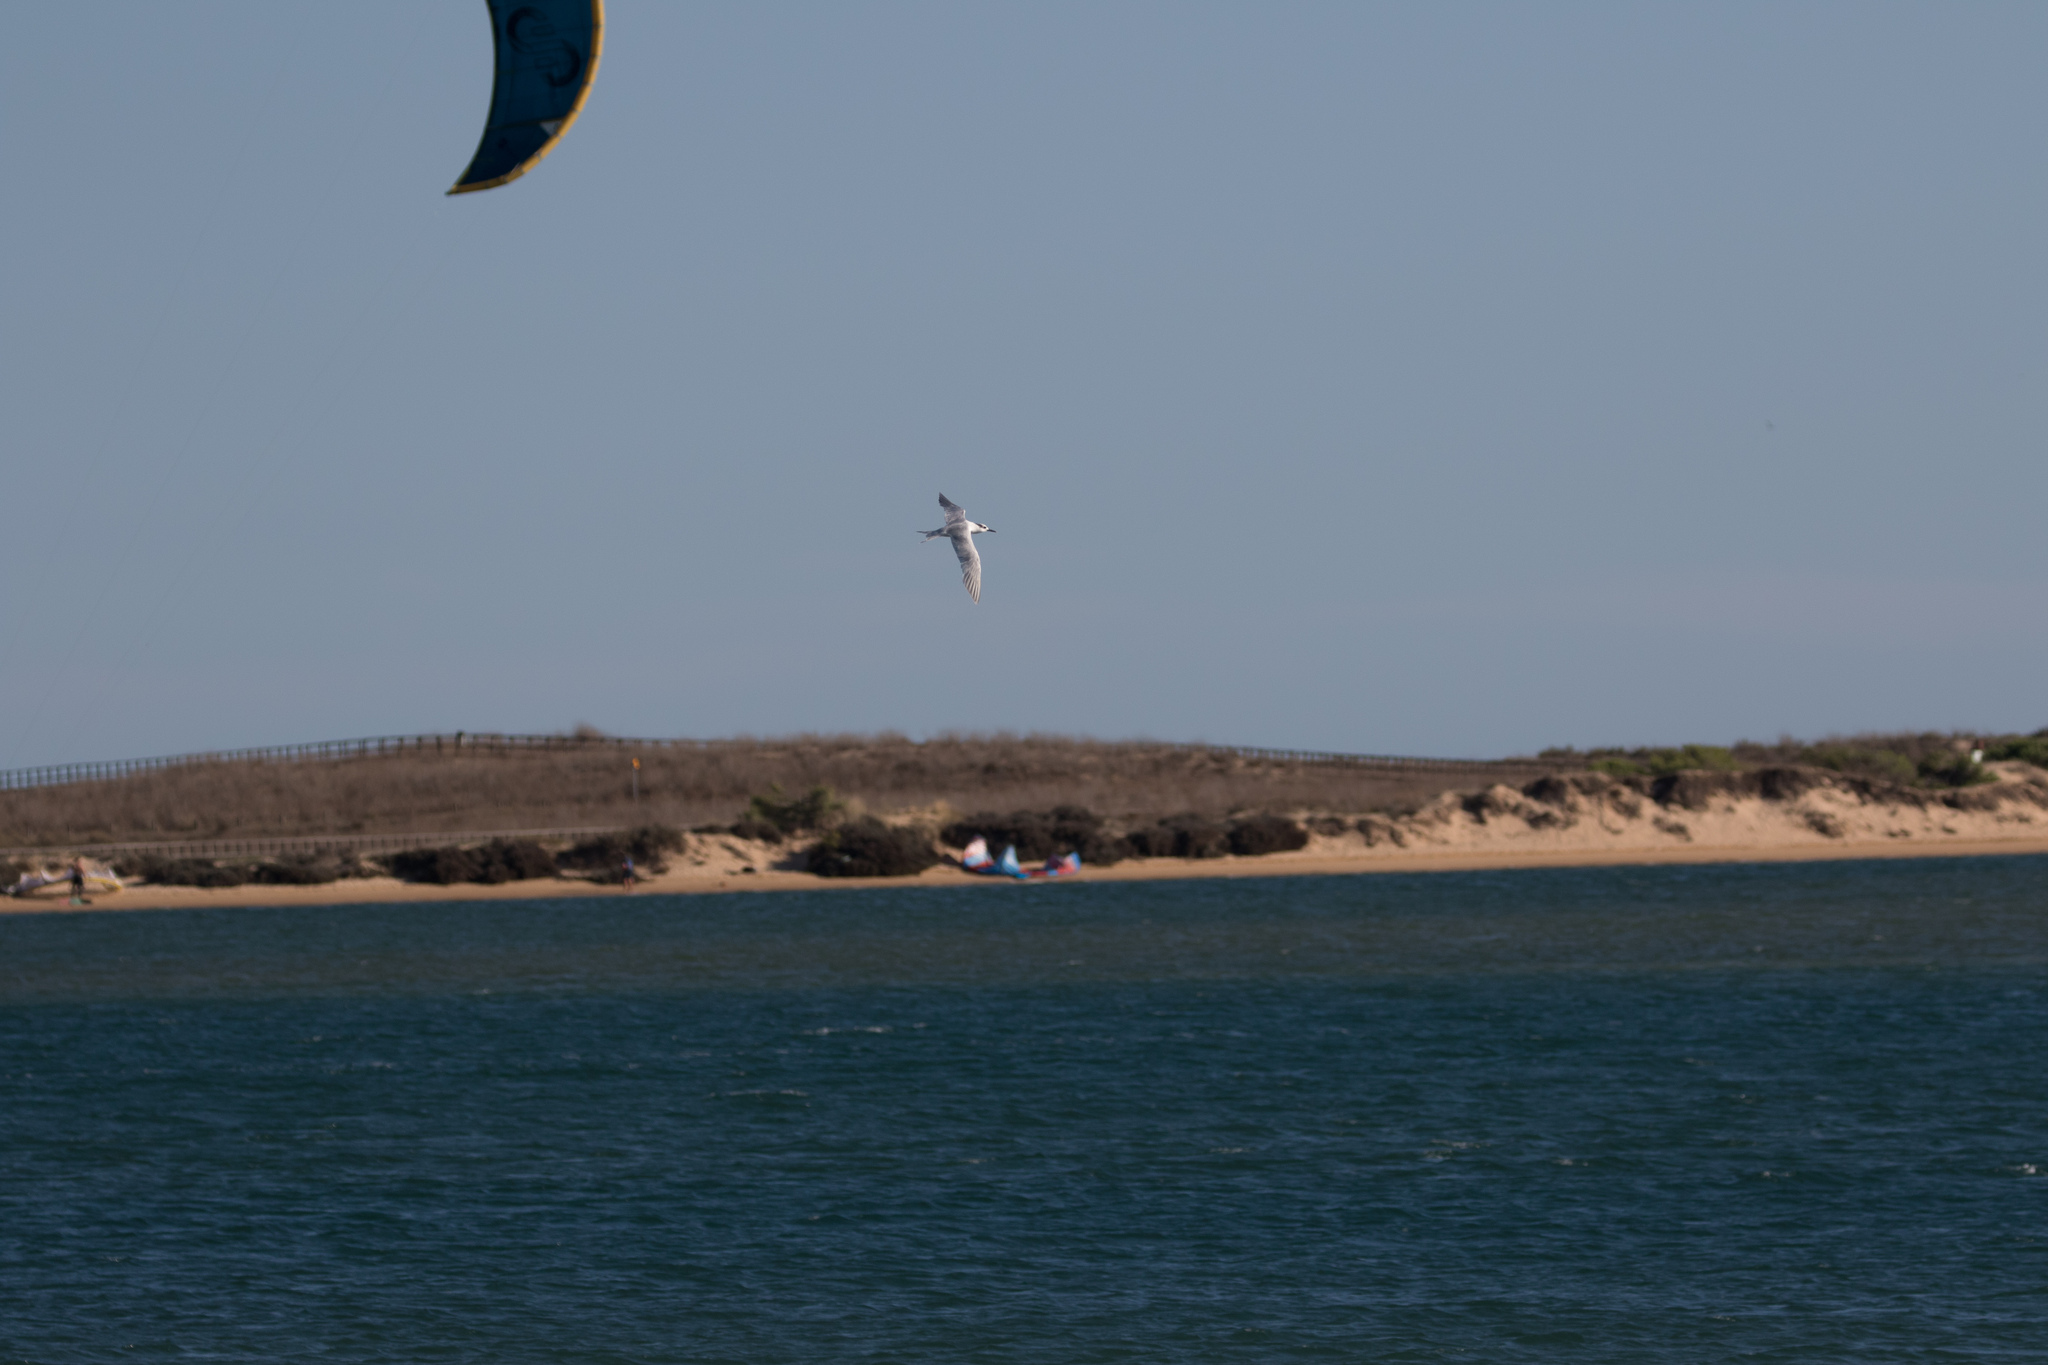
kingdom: Animalia
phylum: Chordata
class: Aves
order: Charadriiformes
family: Laridae
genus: Thalasseus
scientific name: Thalasseus sandvicensis
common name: Sandwich tern
